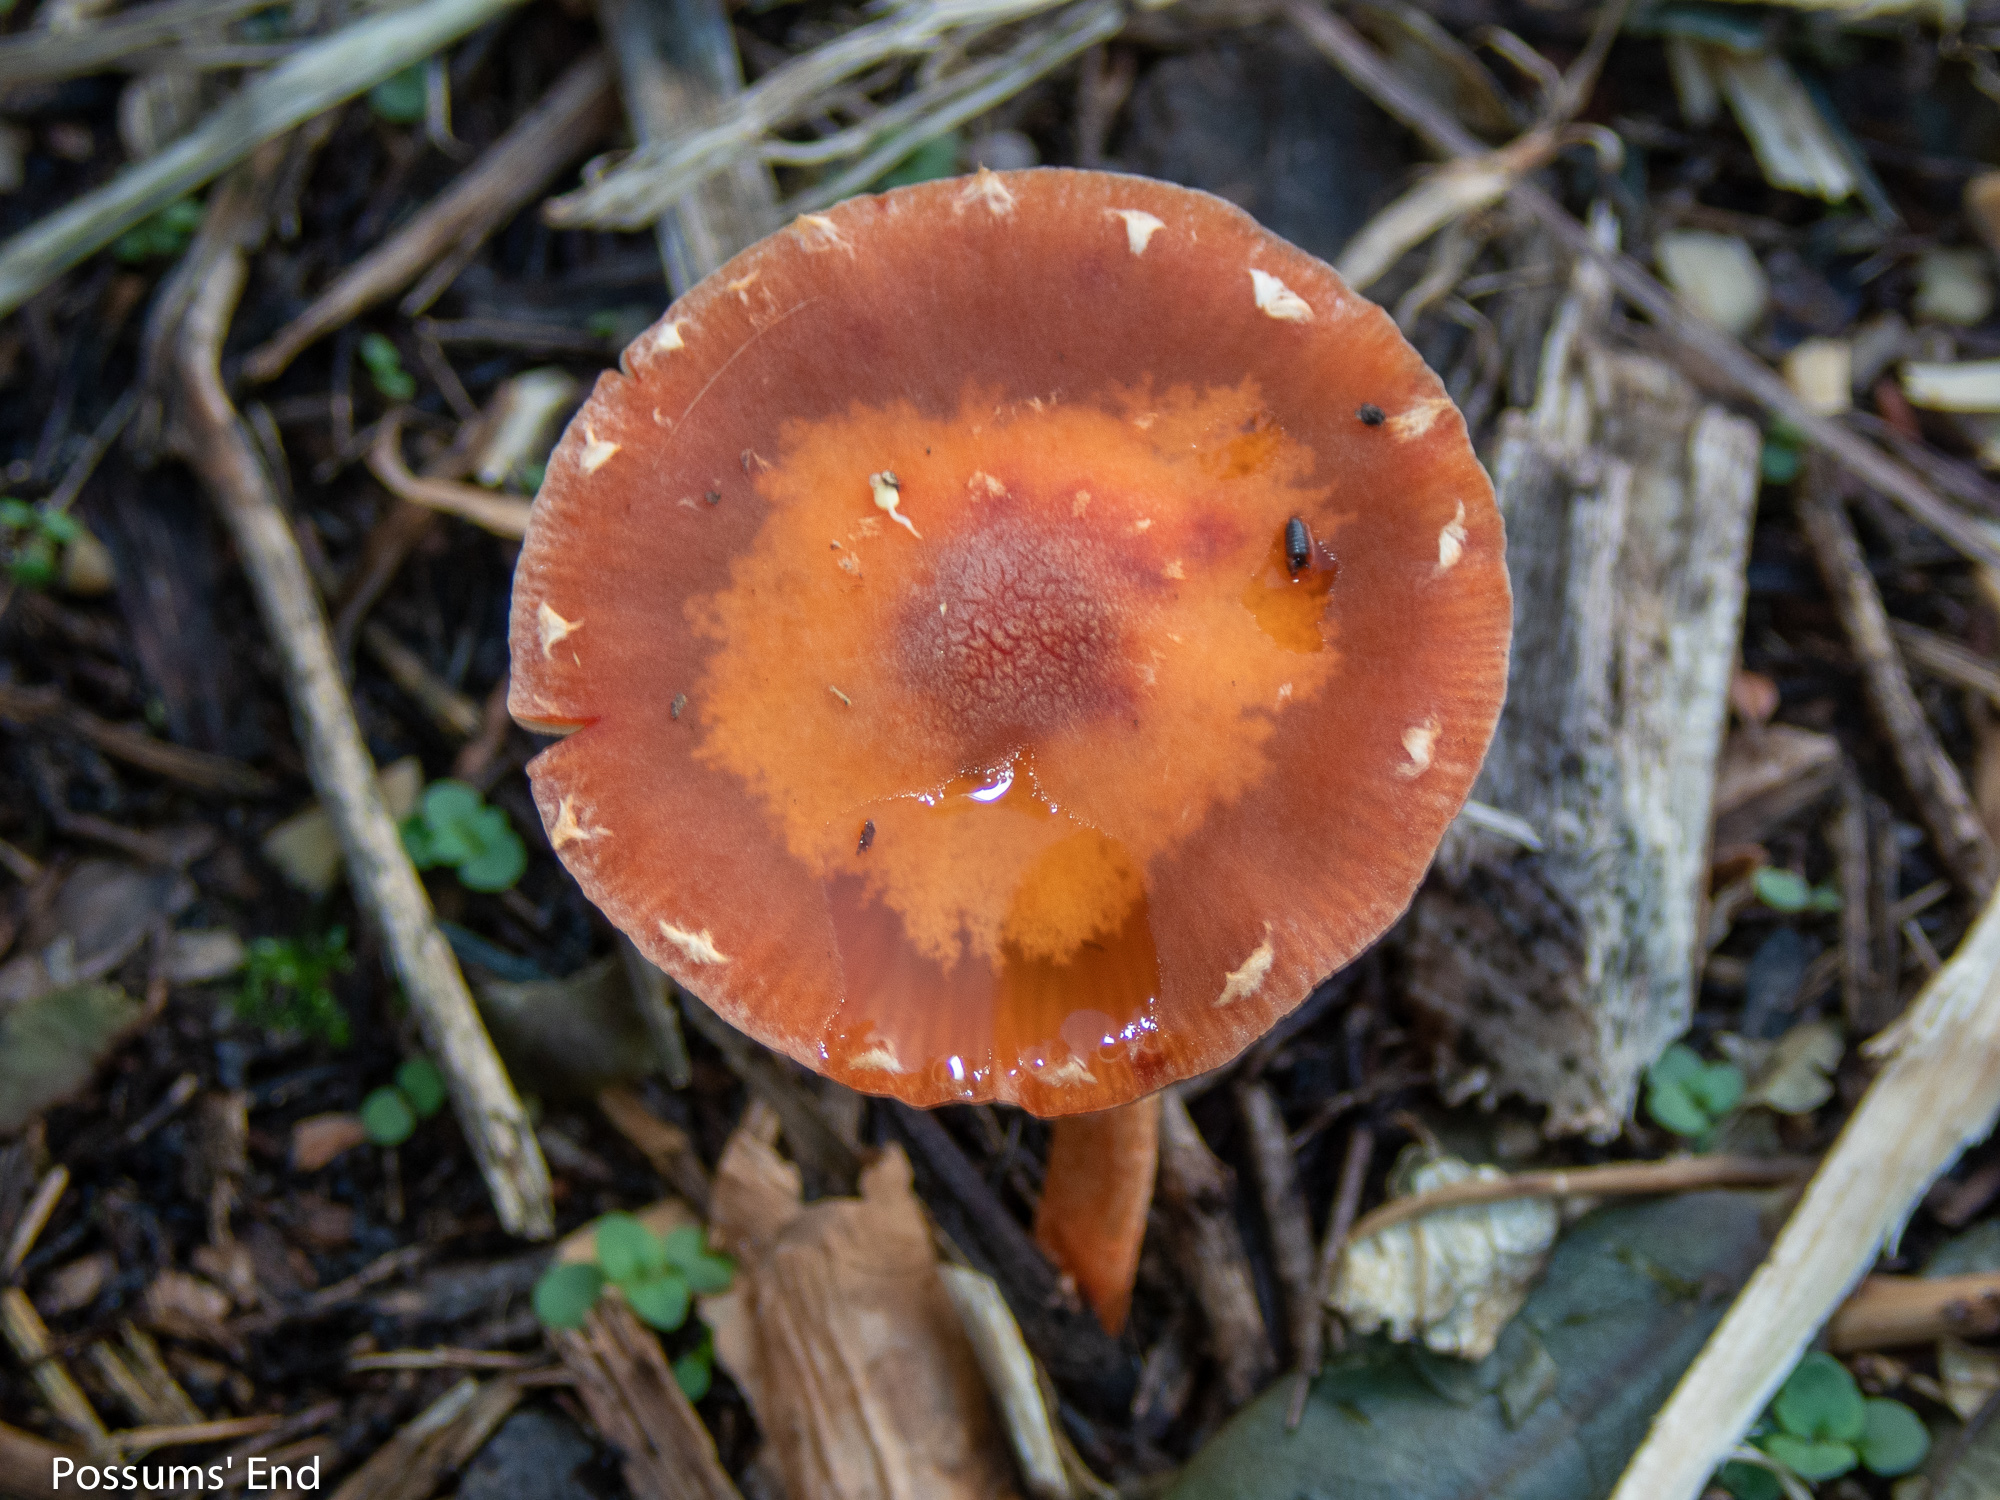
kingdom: Fungi
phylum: Basidiomycota
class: Agaricomycetes
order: Agaricales
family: Strophariaceae
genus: Leratiomyces
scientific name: Leratiomyces ceres
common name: Redlead roundhead
